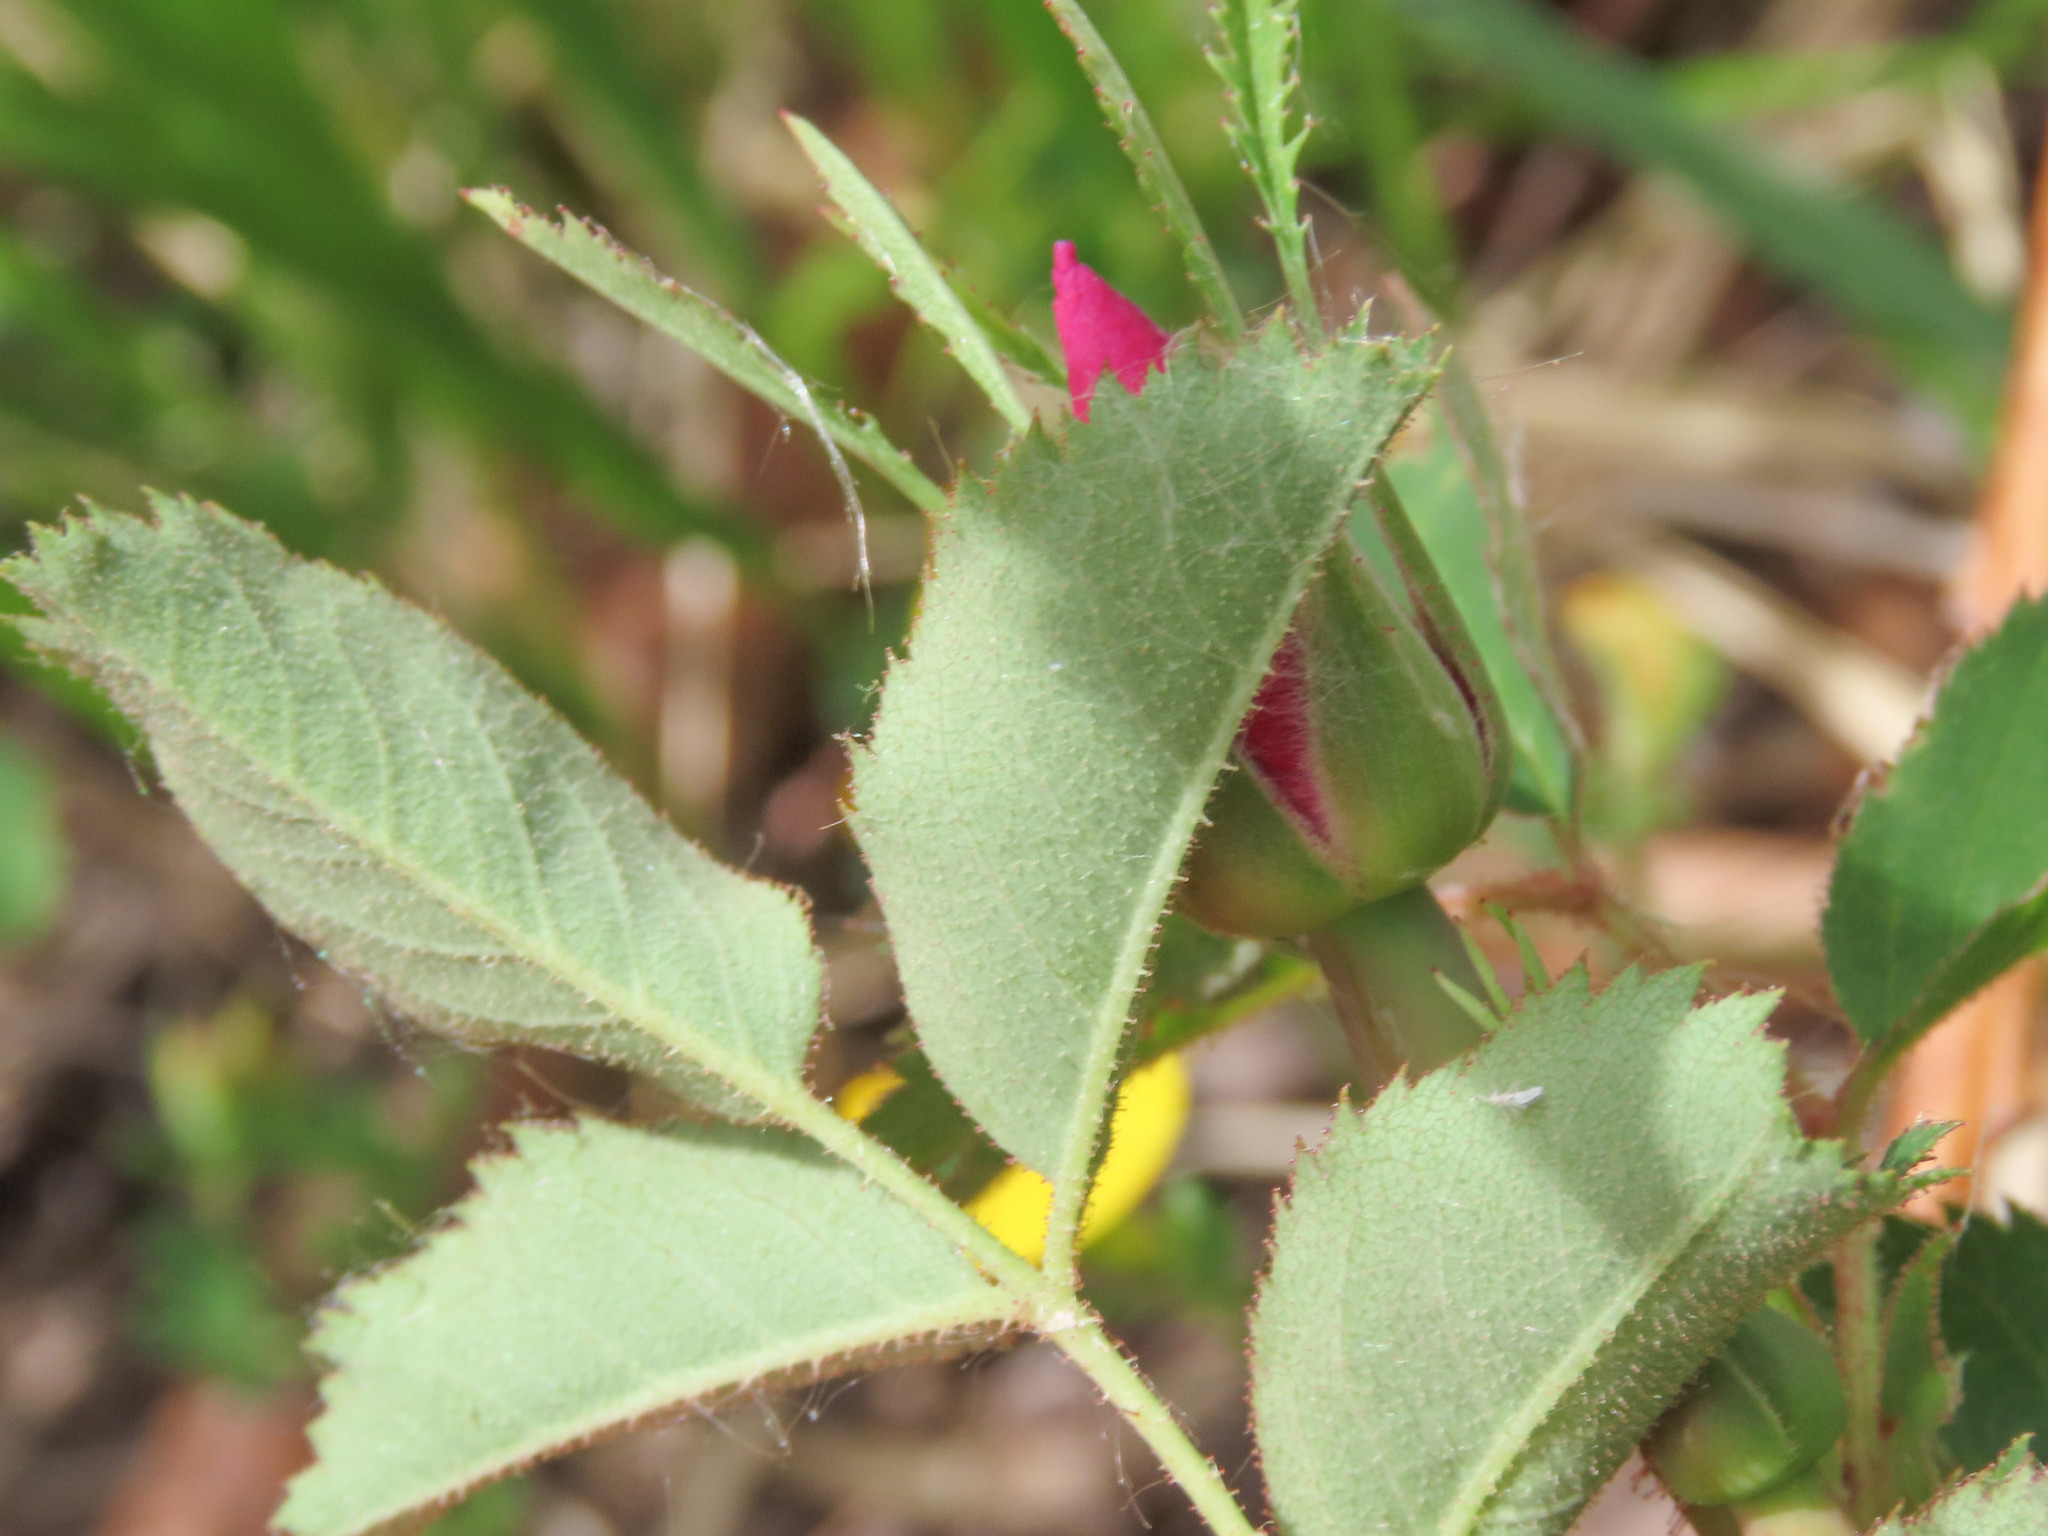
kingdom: Plantae
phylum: Tracheophyta
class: Magnoliopsida
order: Rosales
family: Rosaceae
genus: Rosa
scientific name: Rosa pendulina
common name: Alpine rose
